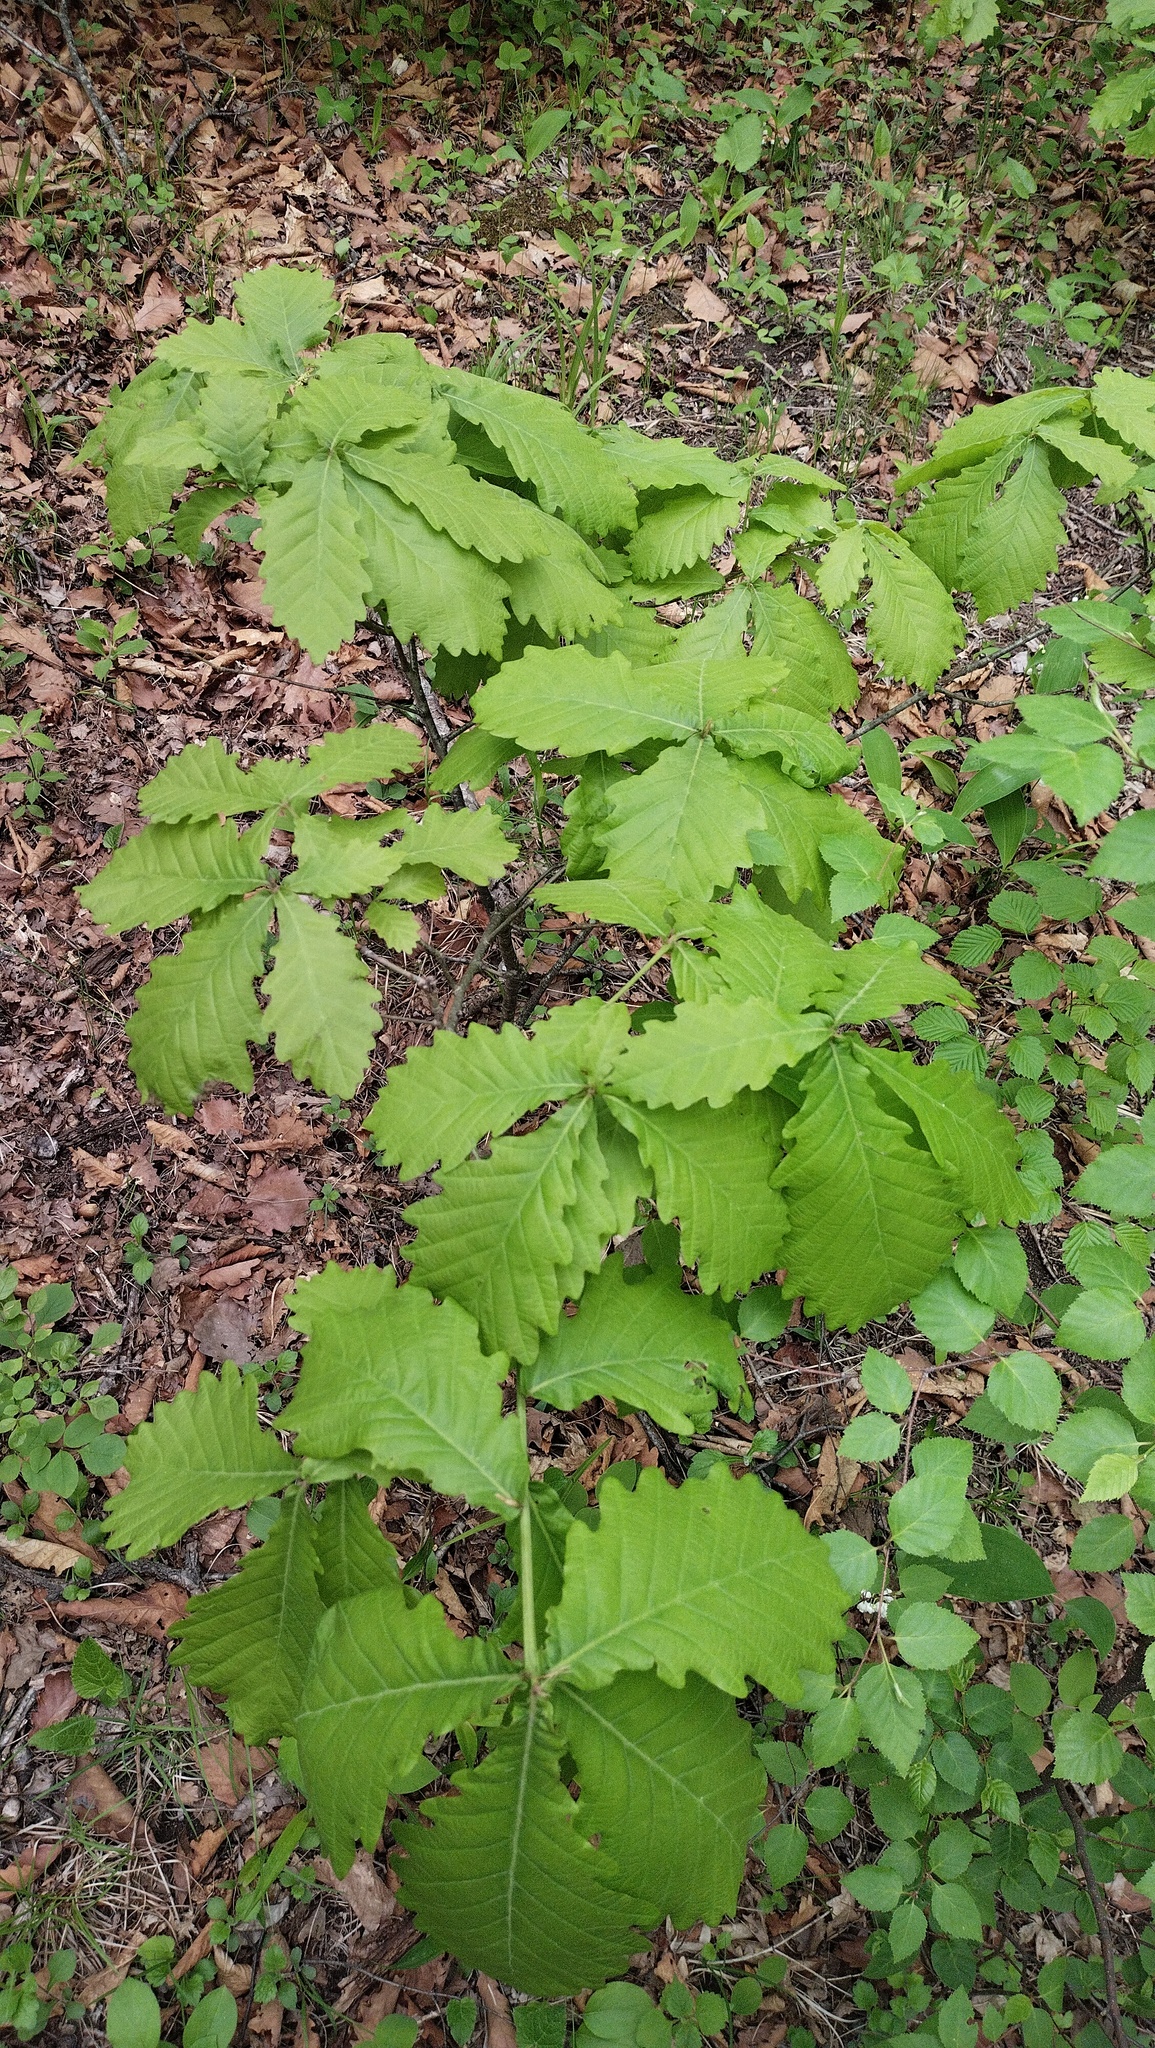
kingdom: Plantae
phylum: Tracheophyta
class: Magnoliopsida
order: Fagales
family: Fagaceae
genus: Quercus
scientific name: Quercus mongolica
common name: Mongolian oak
